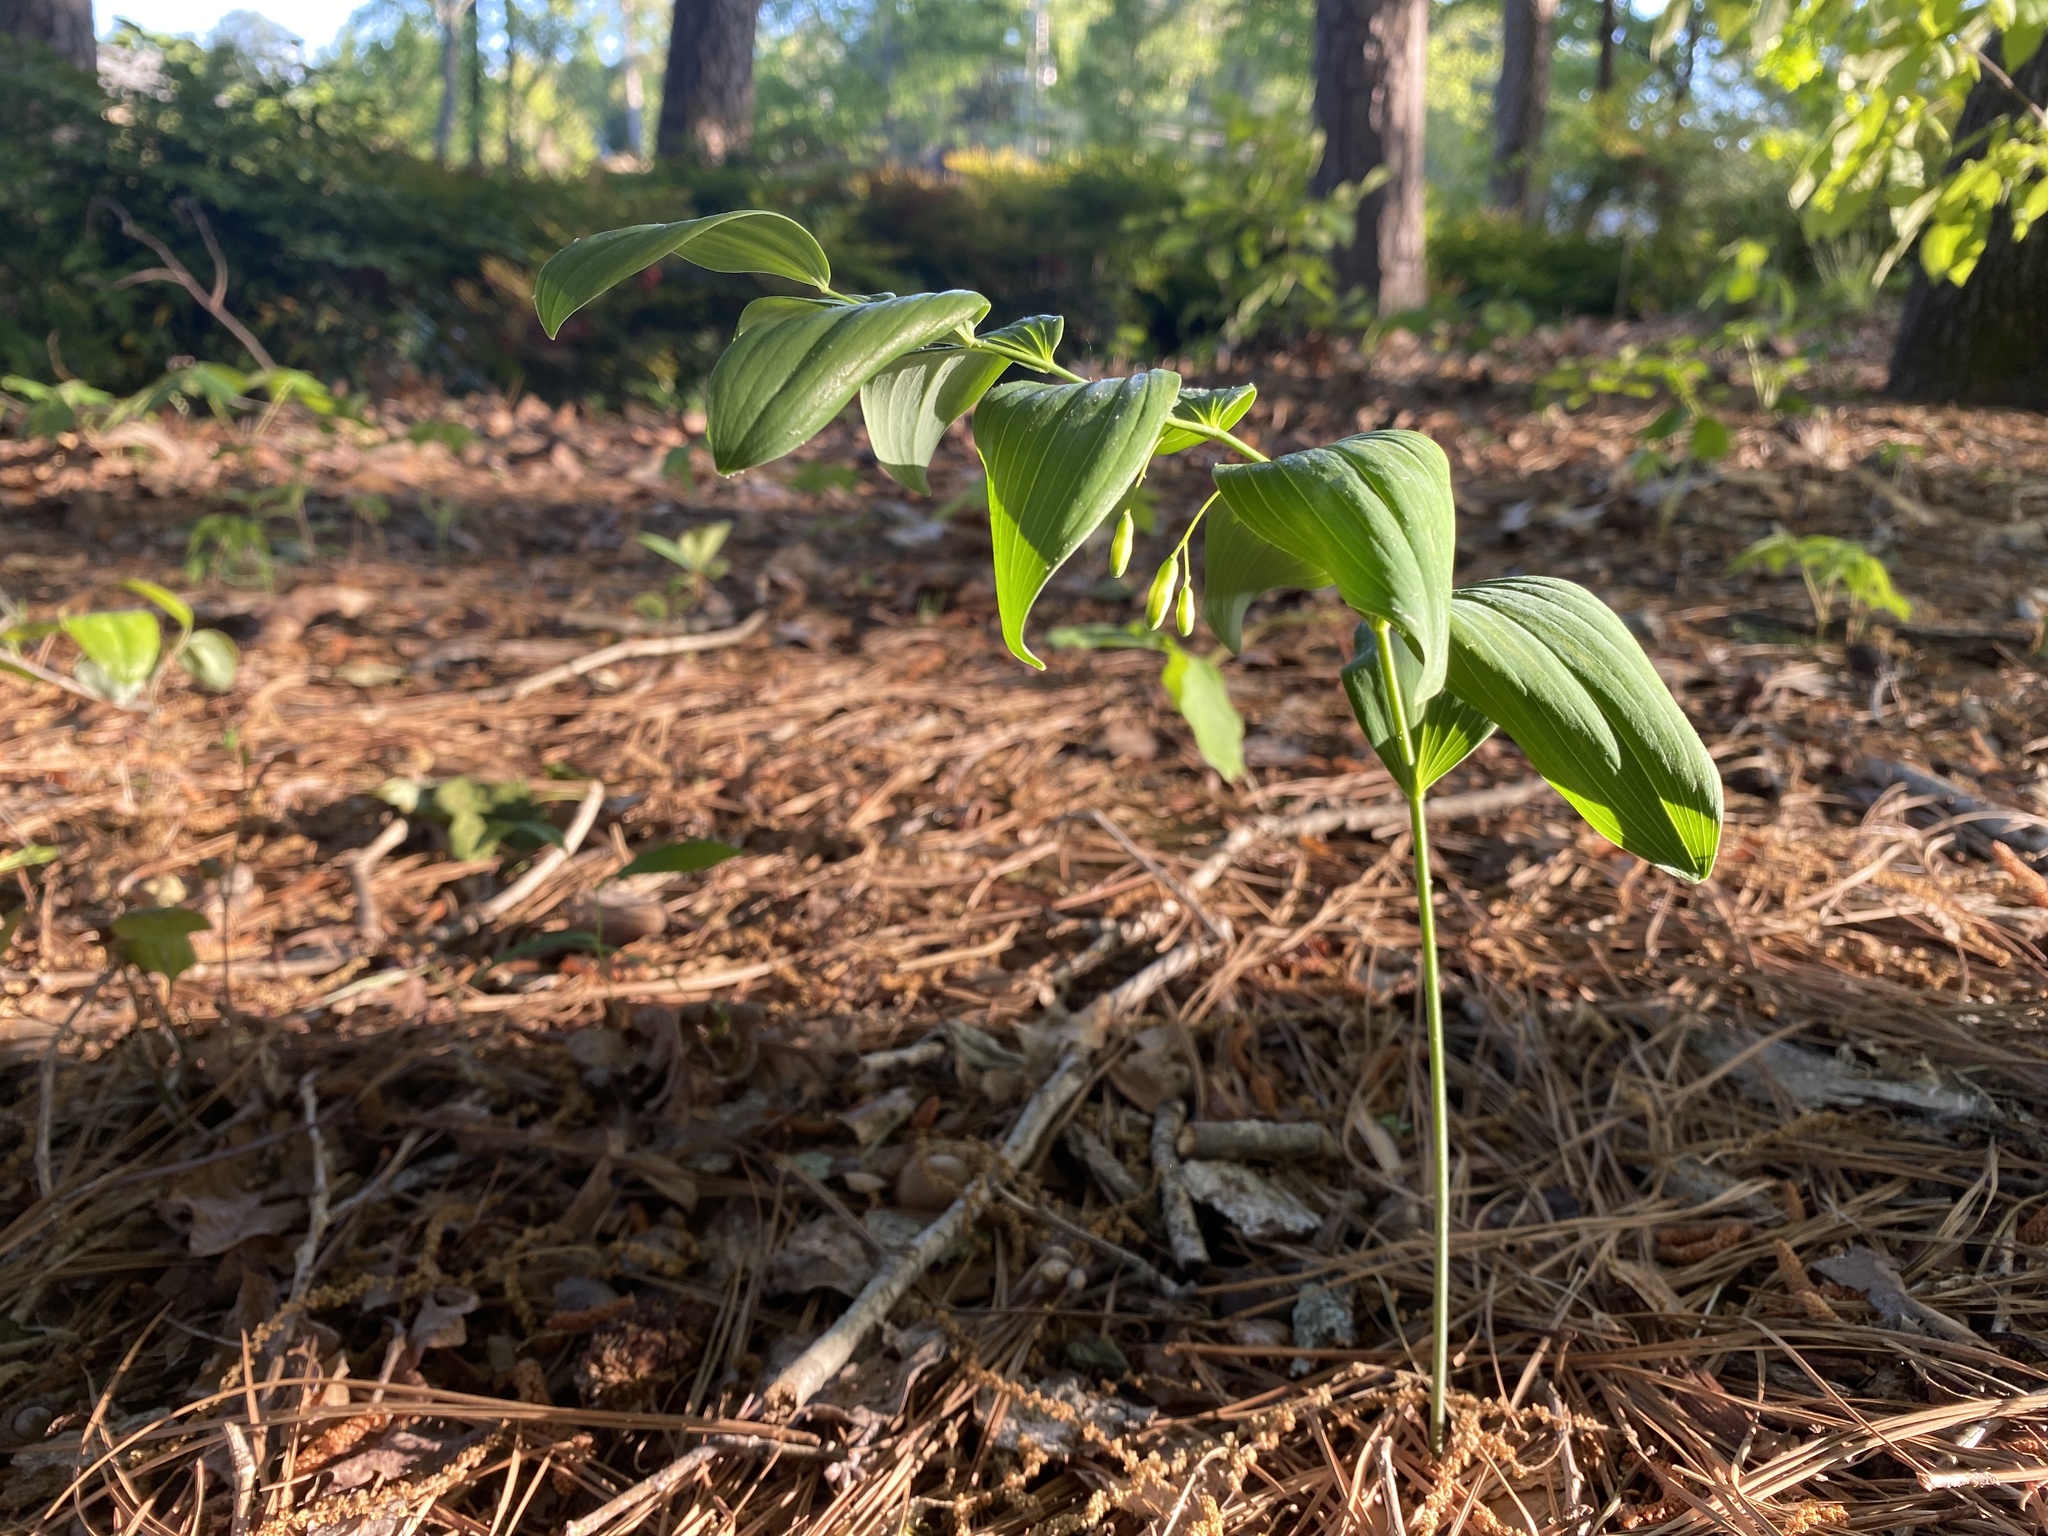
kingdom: Plantae
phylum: Tracheophyta
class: Liliopsida
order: Asparagales
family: Asparagaceae
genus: Polygonatum
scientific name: Polygonatum biflorum
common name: American solomon's-seal
